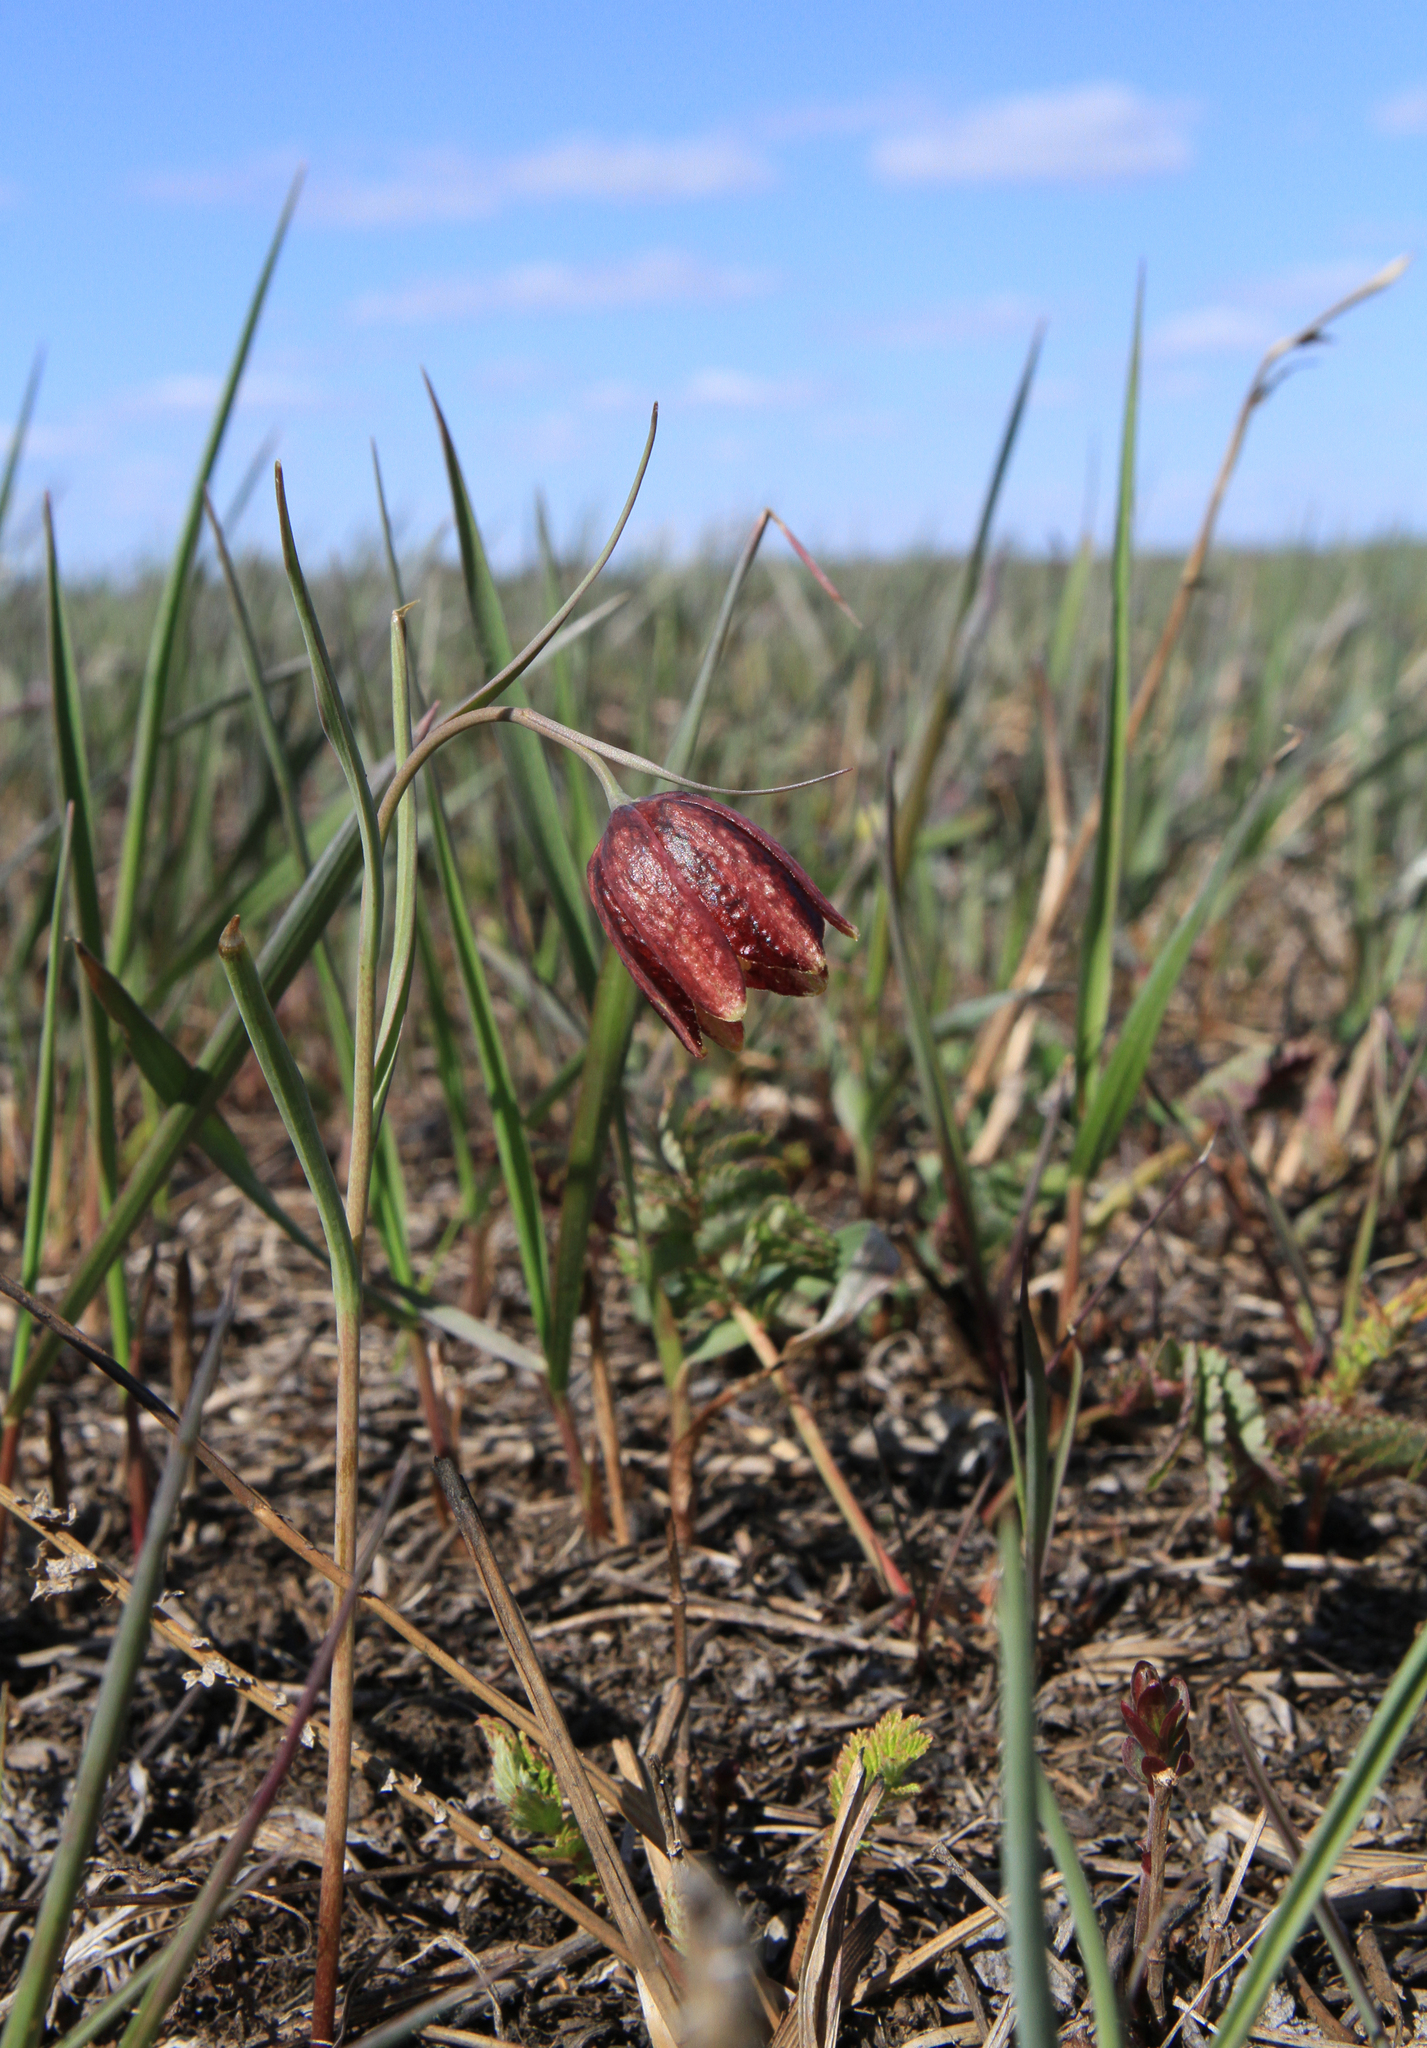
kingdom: Plantae
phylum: Tracheophyta
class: Liliopsida
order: Liliales
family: Liliaceae
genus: Fritillaria
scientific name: Fritillaria meleagroides
